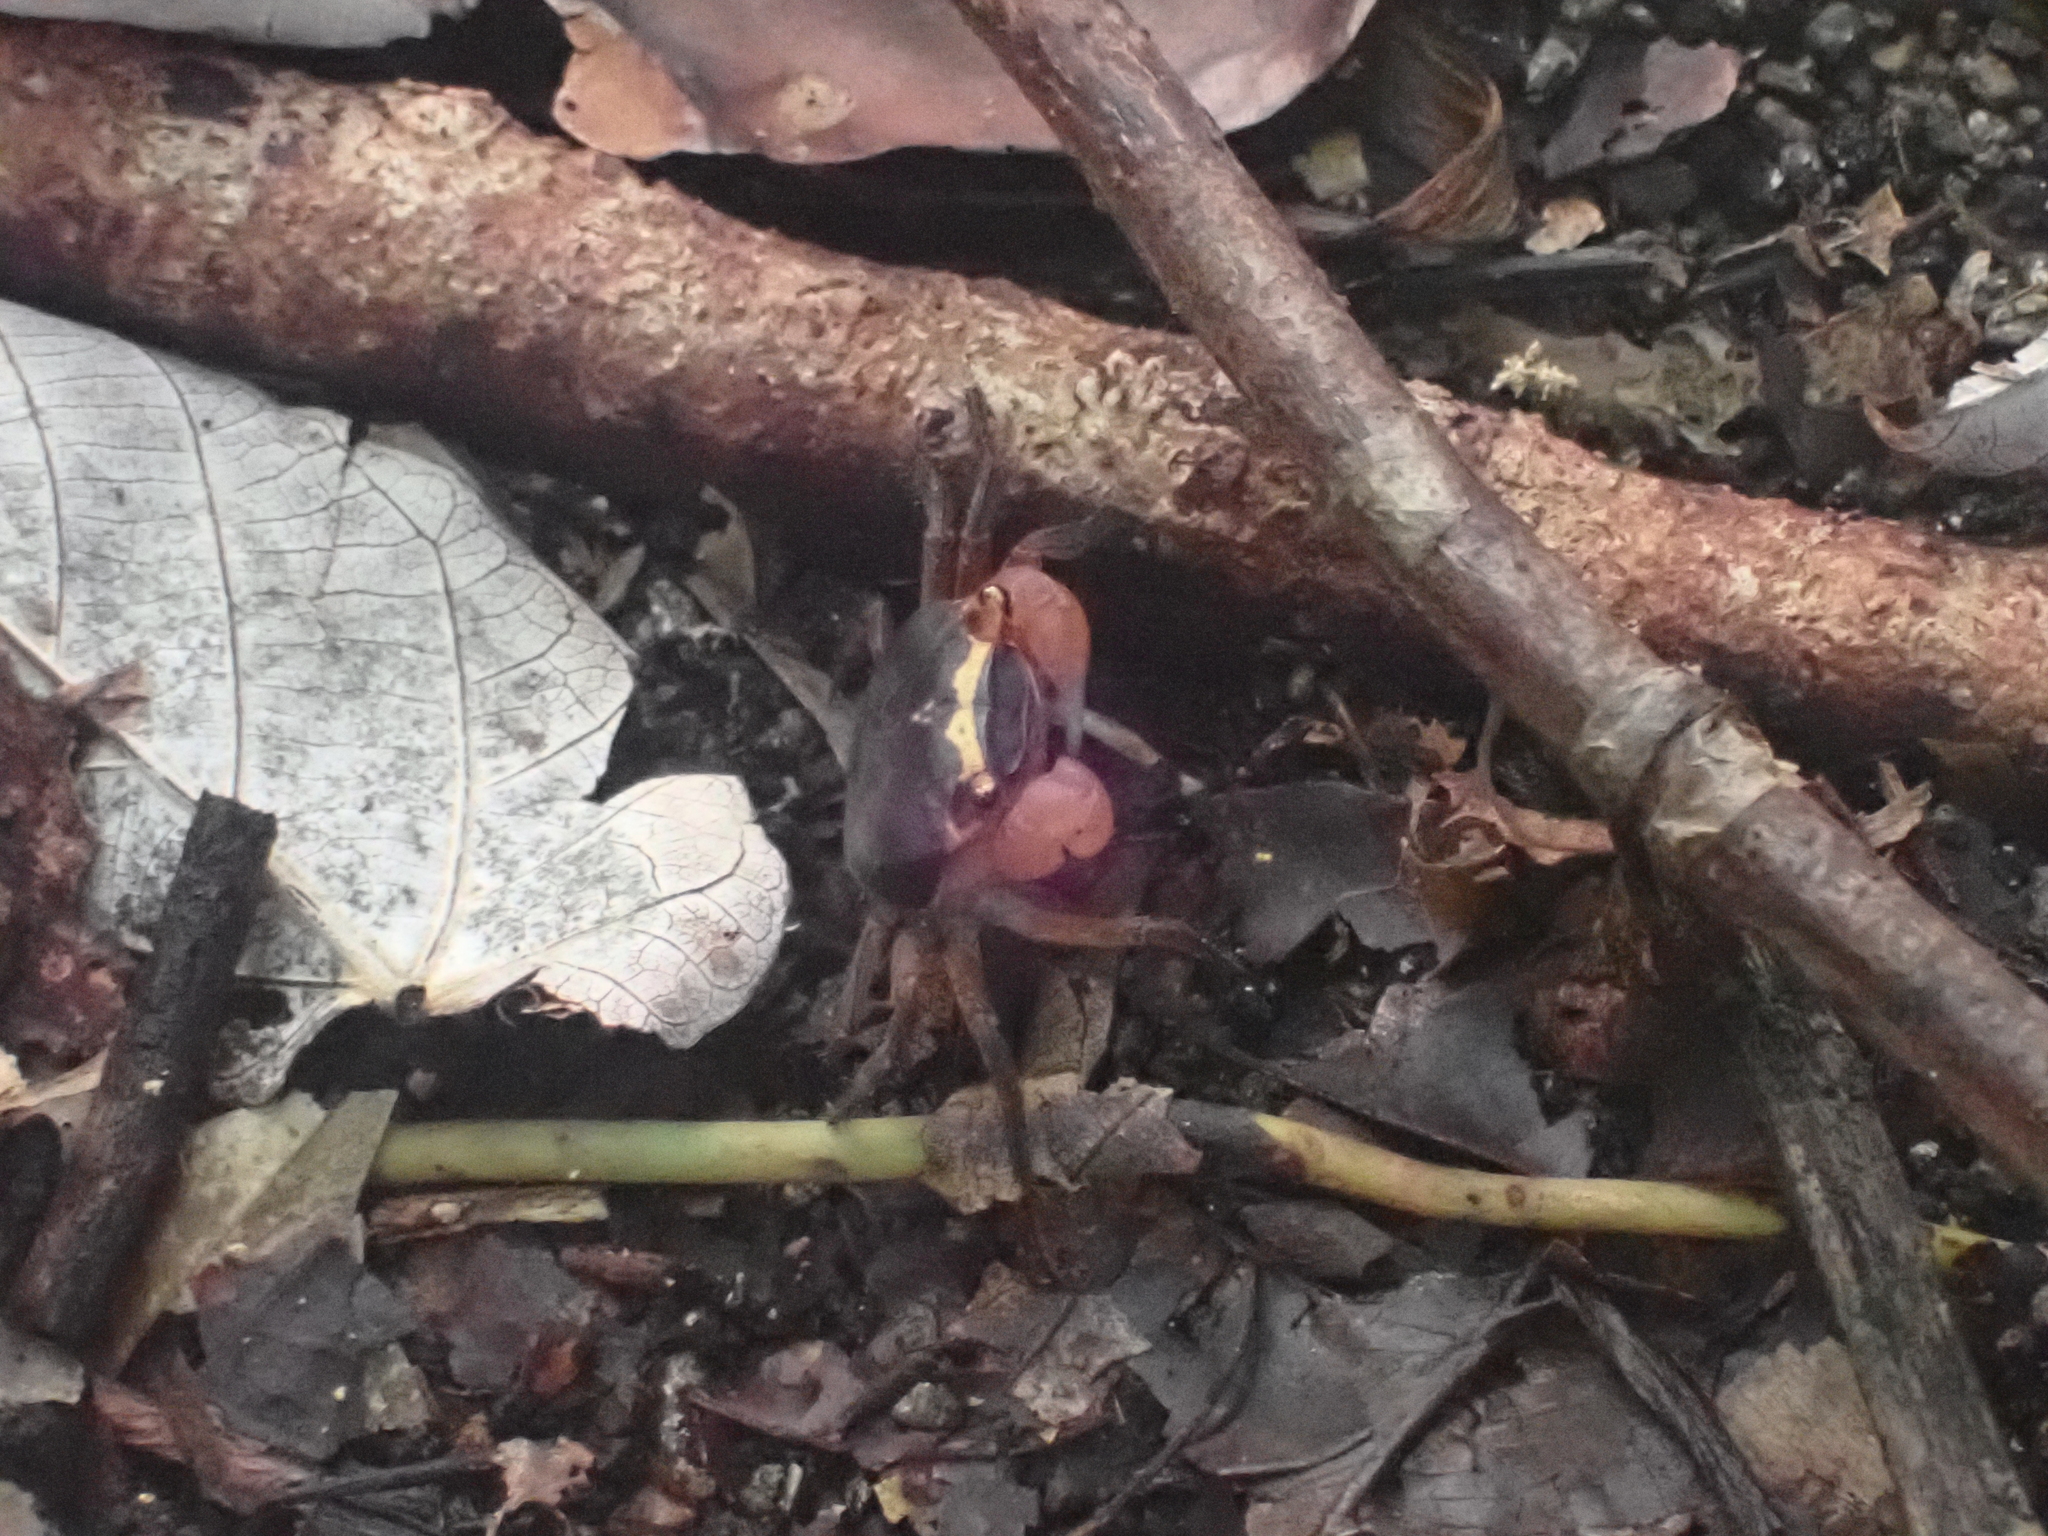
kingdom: Animalia
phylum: Arthropoda
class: Malacostraca
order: Decapoda
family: Sesarmidae
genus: Metasesarma
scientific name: Metasesarma aubryi
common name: Apple crab
